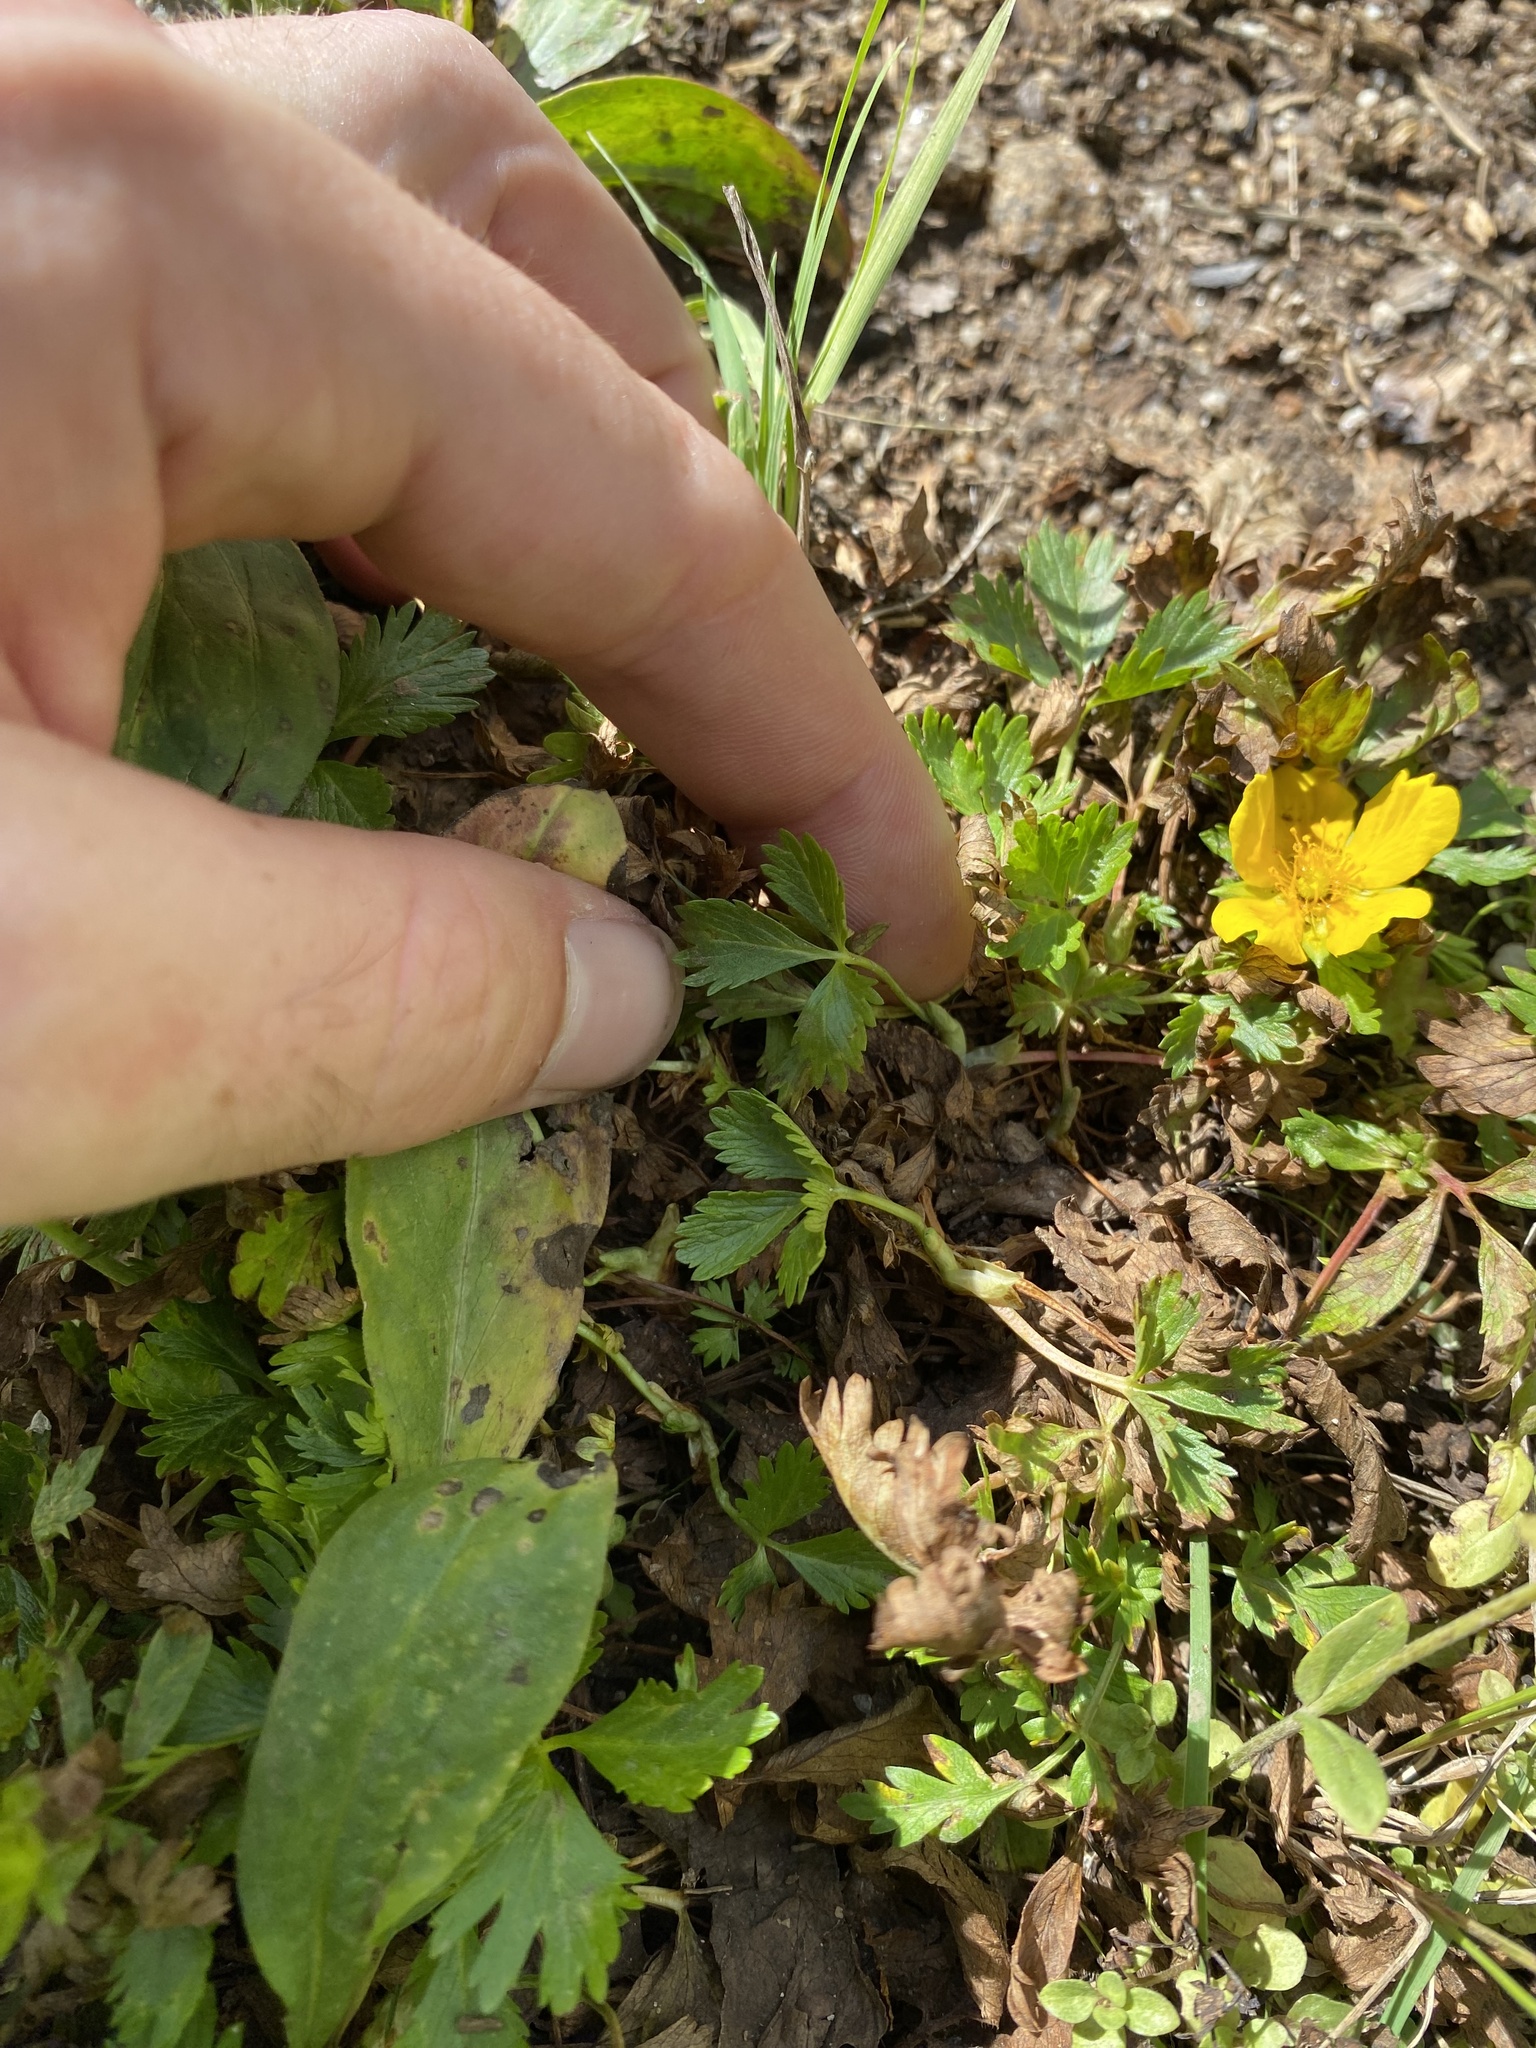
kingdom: Plantae
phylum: Tracheophyta
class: Magnoliopsida
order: Rosales
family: Rosaceae
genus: Potentilla
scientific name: Potentilla flabellifolia
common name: Mount rainier cinquefoil
